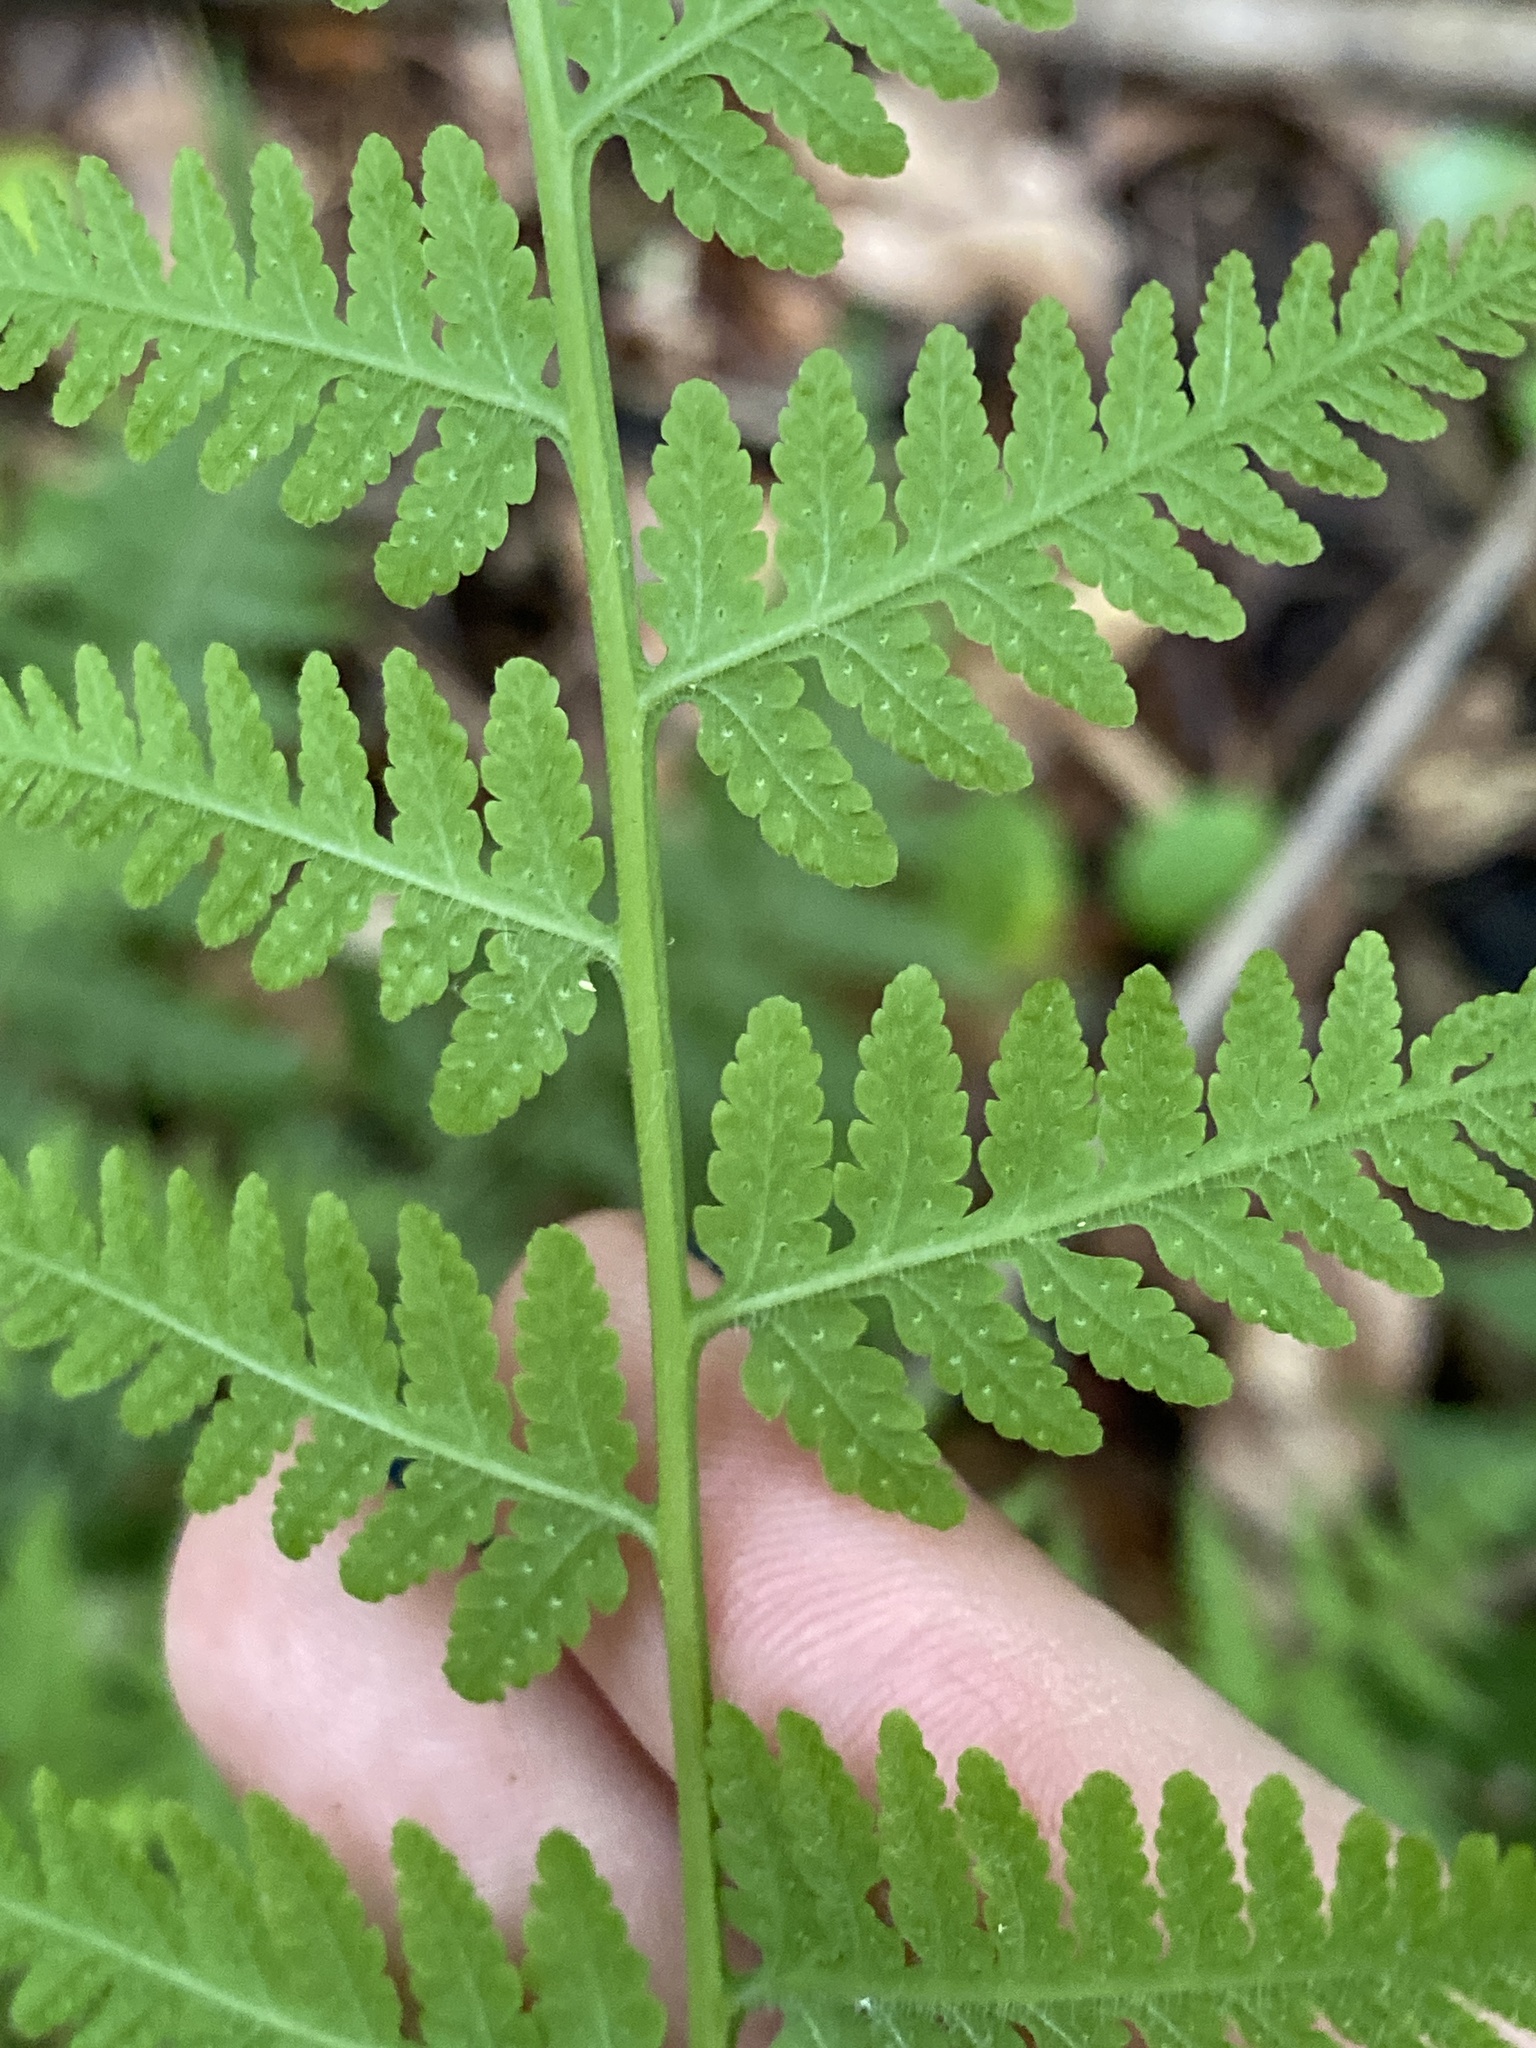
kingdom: Plantae
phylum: Tracheophyta
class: Polypodiopsida
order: Polypodiales
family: Thelypteridaceae
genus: Macrothelypteris
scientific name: Macrothelypteris torresiana
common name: Swordfern
